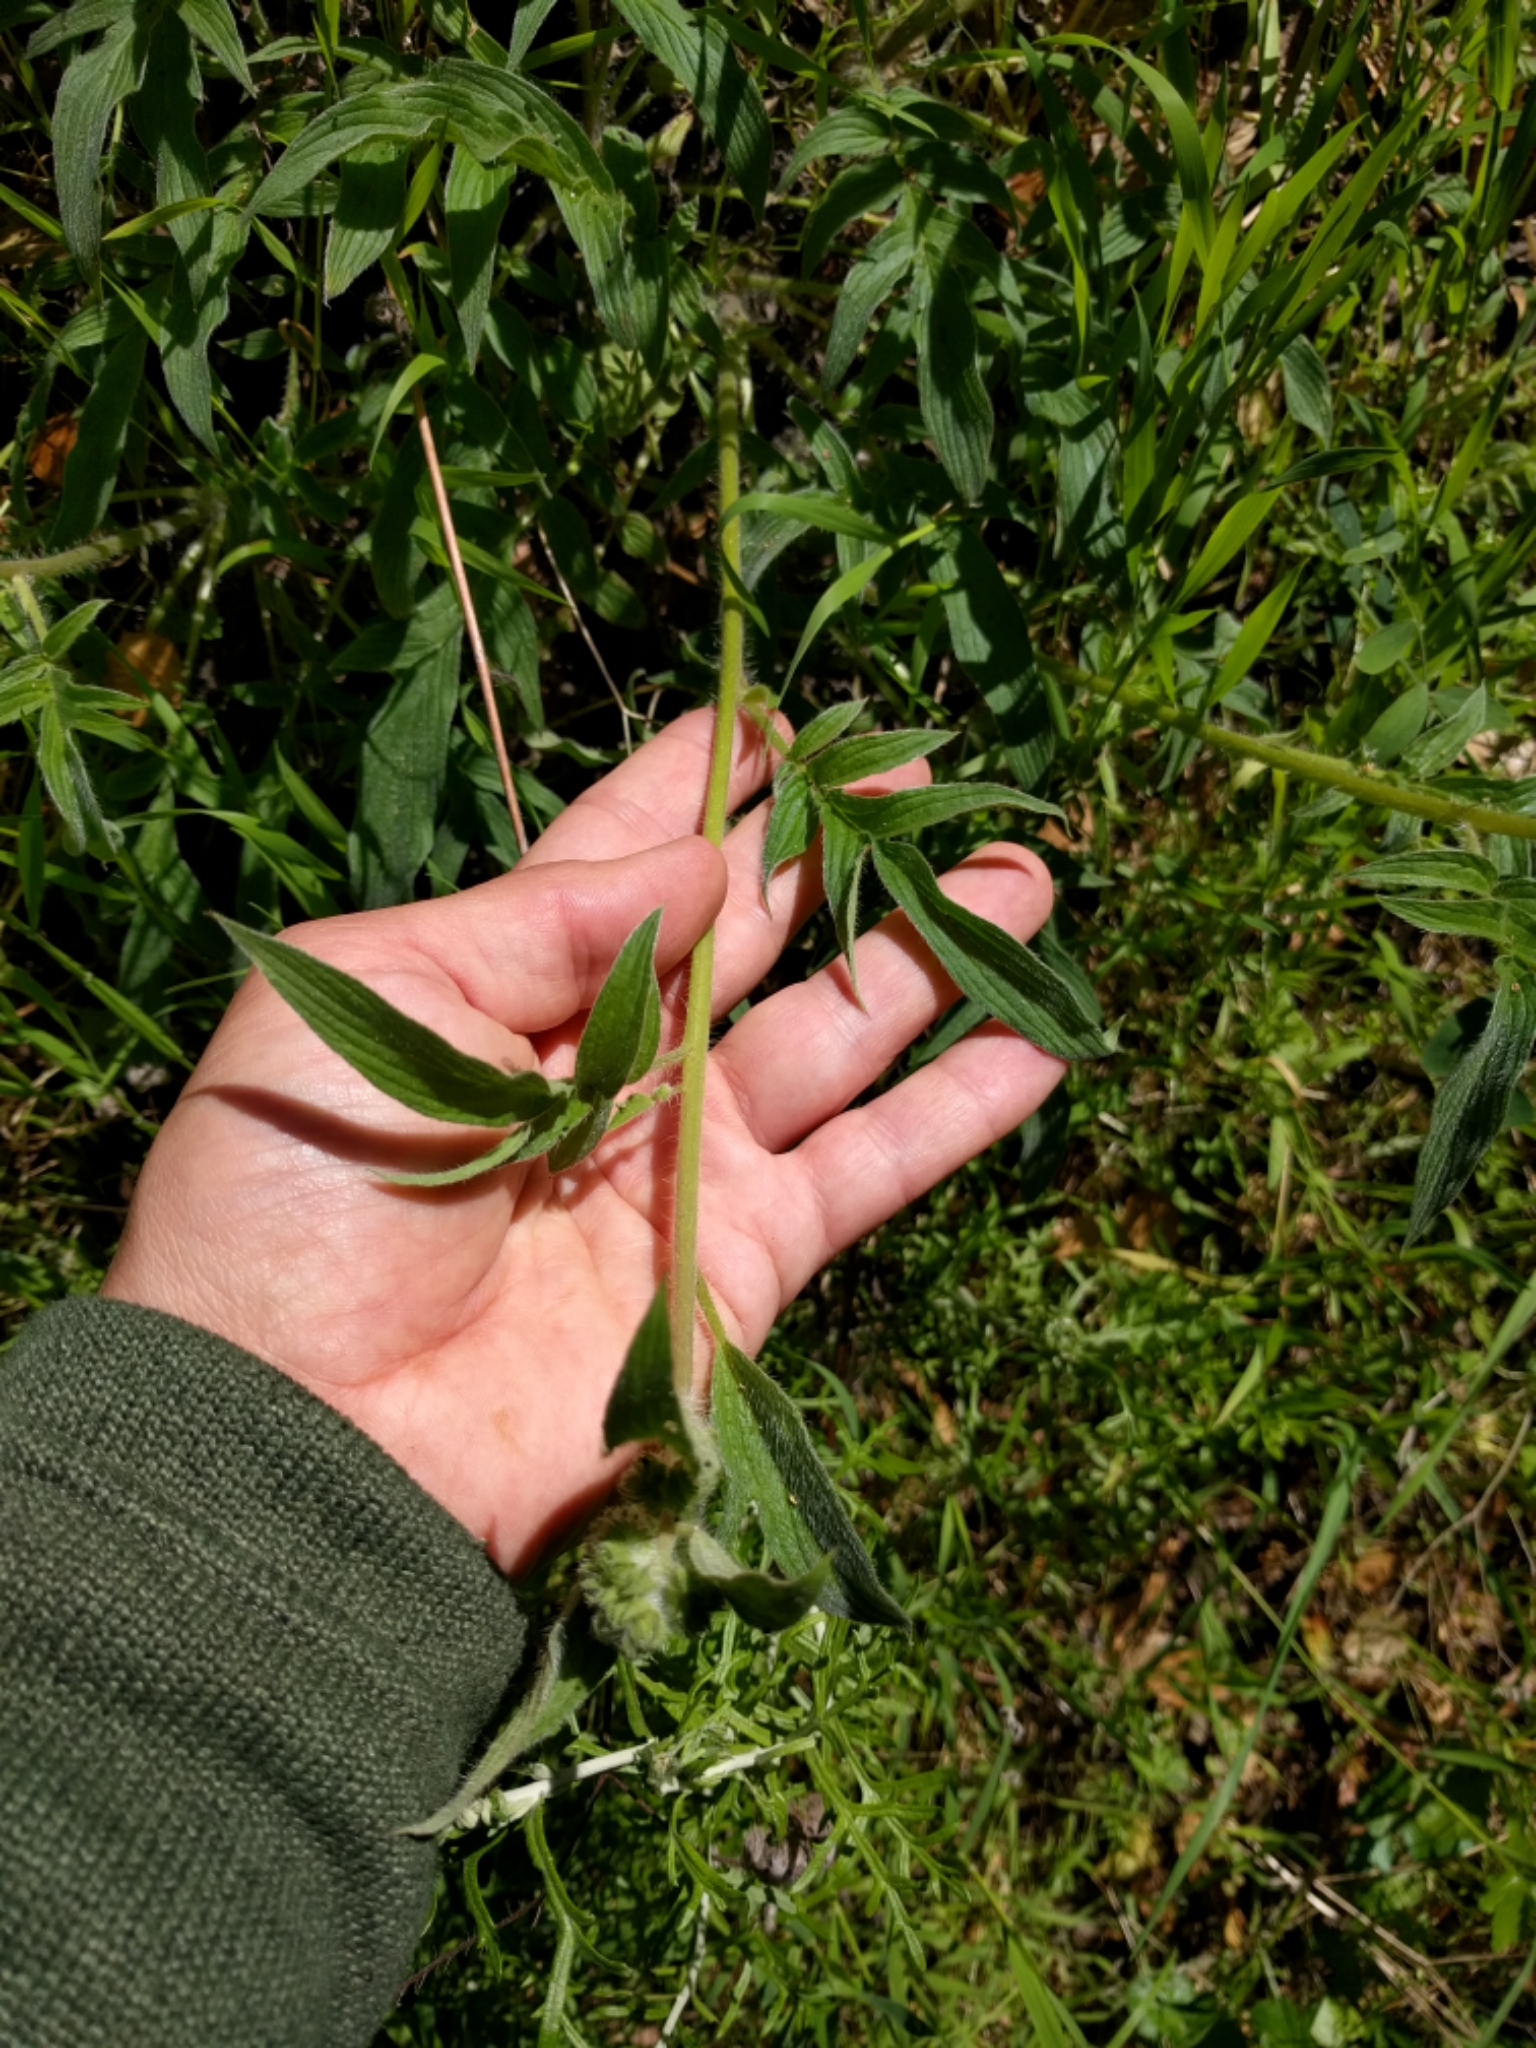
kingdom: Plantae
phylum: Tracheophyta
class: Magnoliopsida
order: Boraginales
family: Hydrophyllaceae
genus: Phacelia
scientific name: Phacelia imbricata
